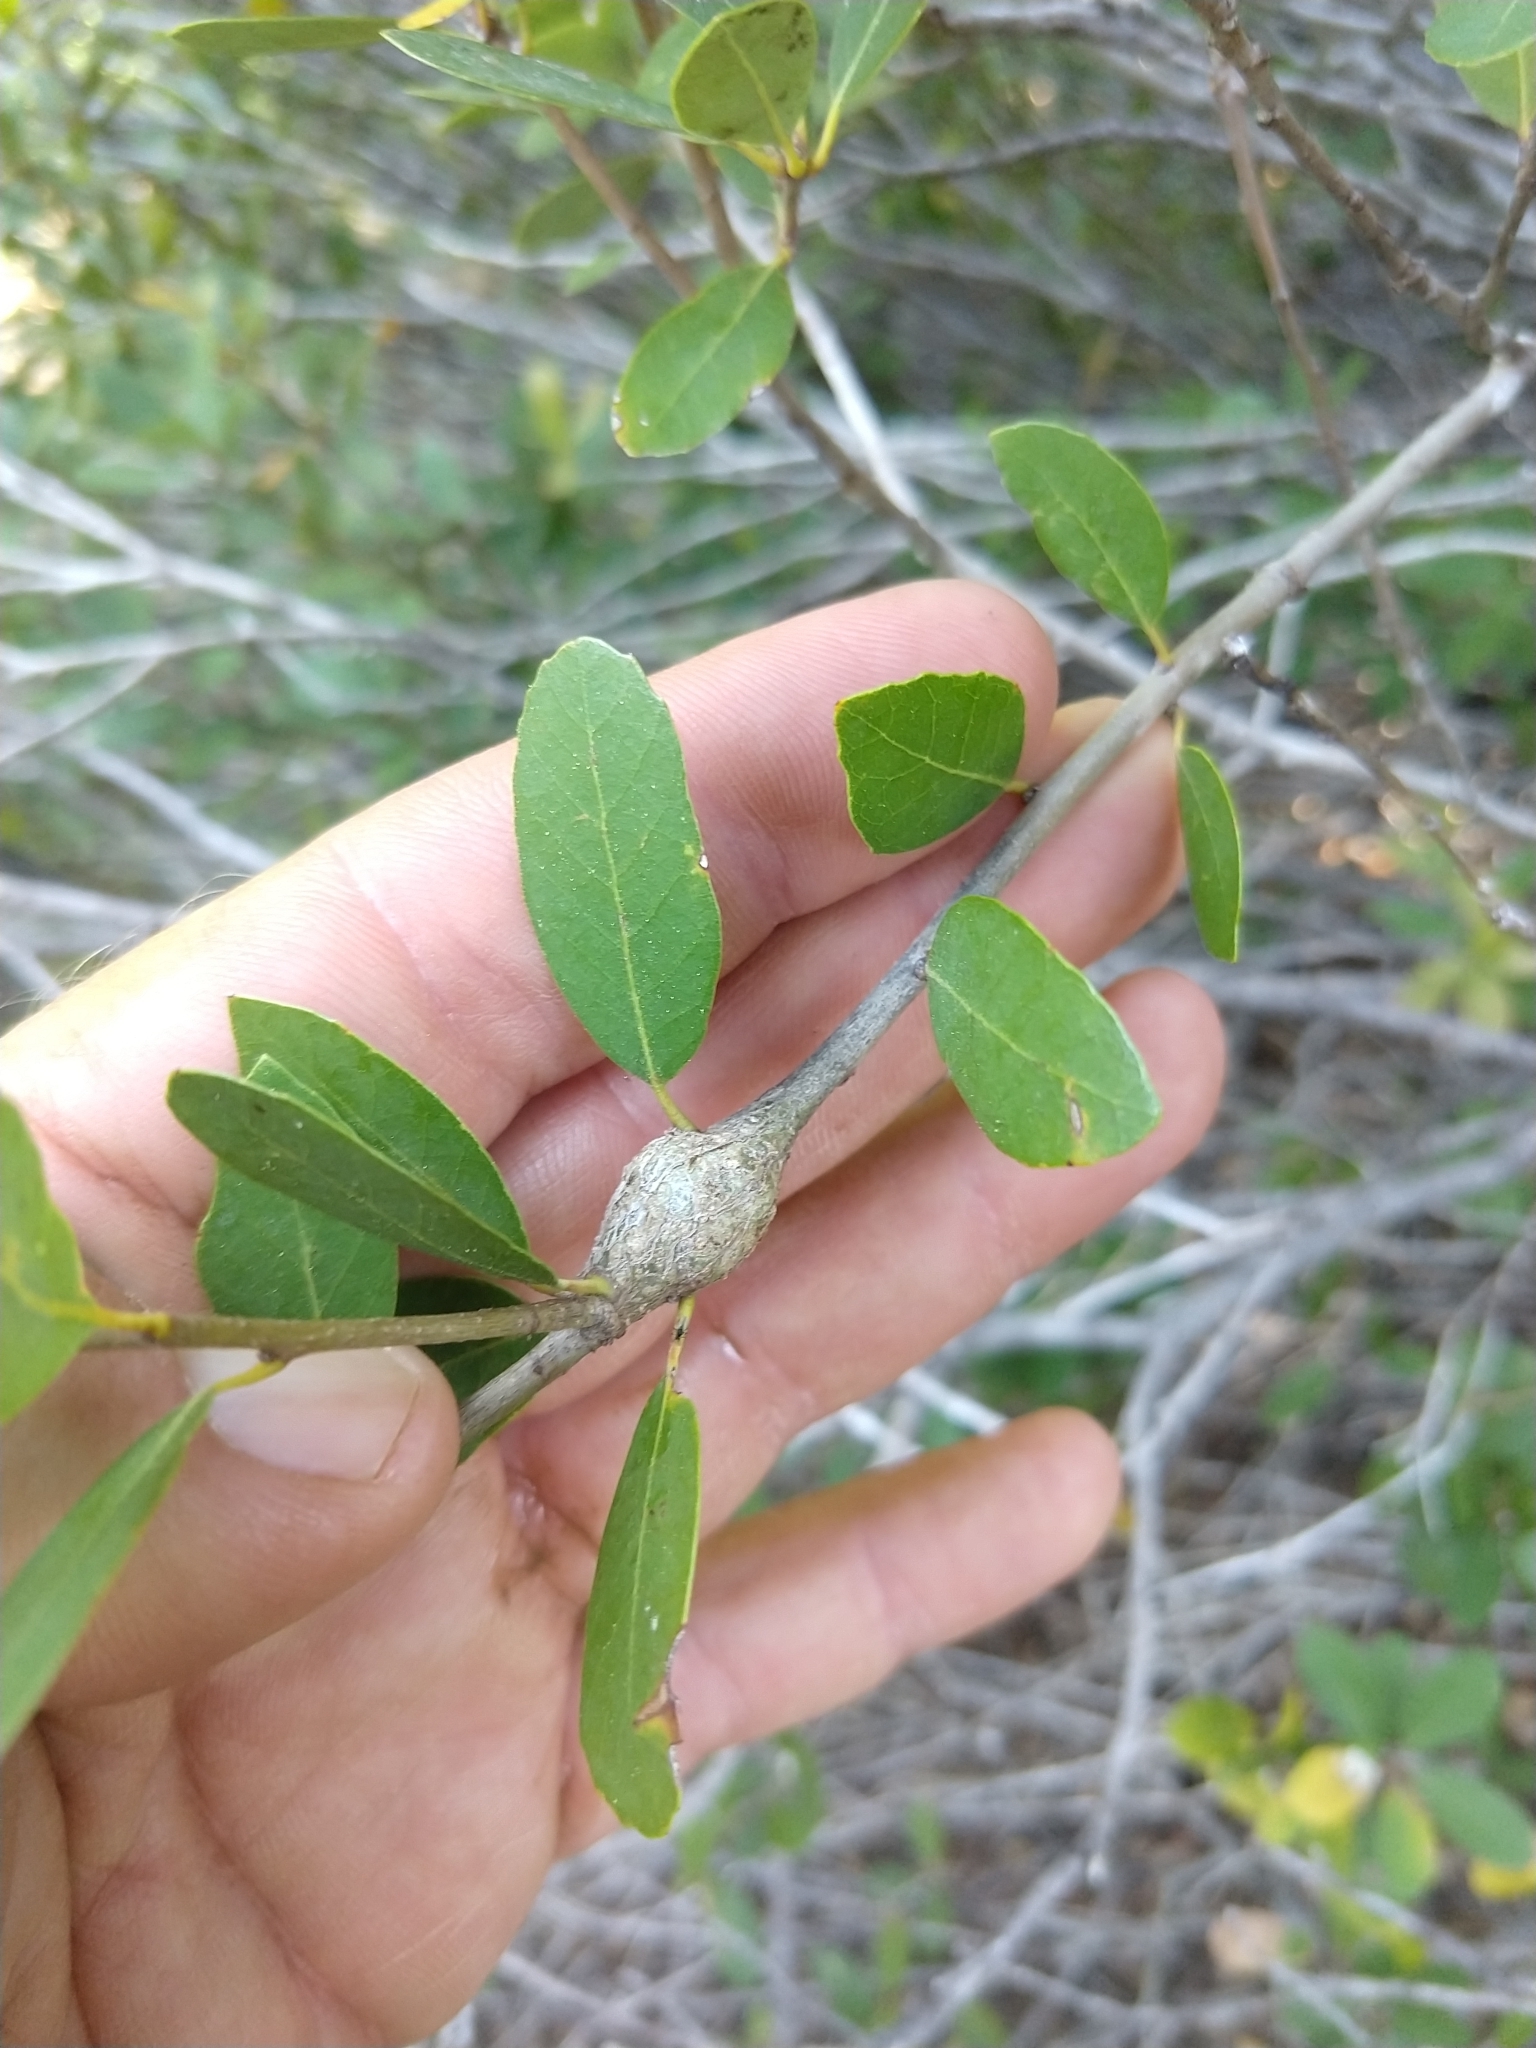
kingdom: Animalia
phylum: Arthropoda
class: Insecta
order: Hymenoptera
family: Cynipidae
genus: Disholcaspis
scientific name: Disholcaspis spectabilis
